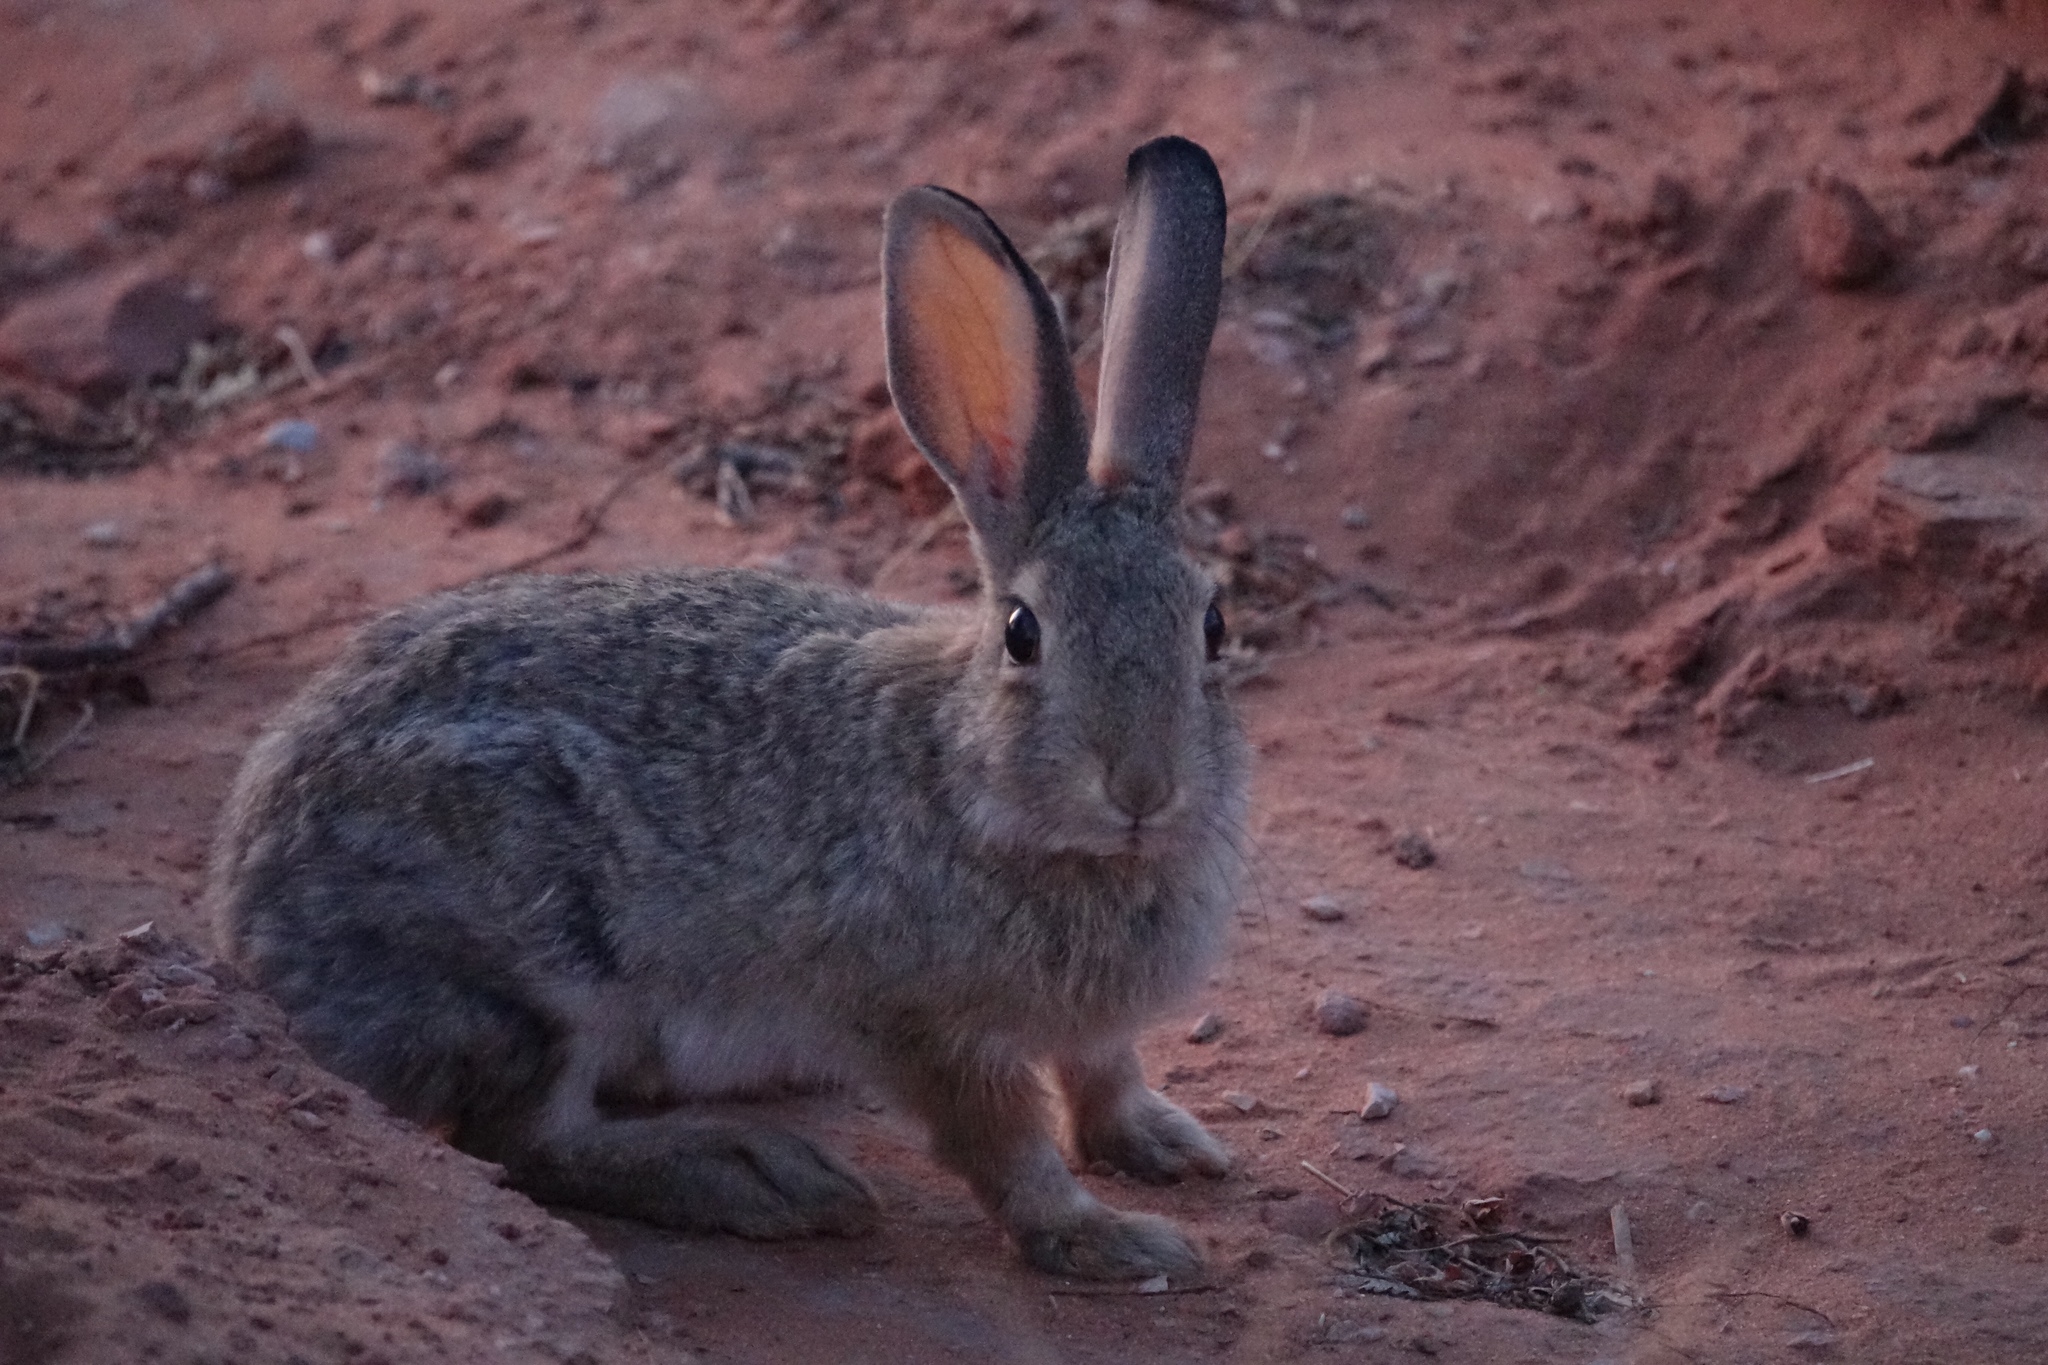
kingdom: Animalia
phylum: Chordata
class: Mammalia
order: Lagomorpha
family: Leporidae
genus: Sylvilagus
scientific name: Sylvilagus audubonii
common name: Desert cottontail
